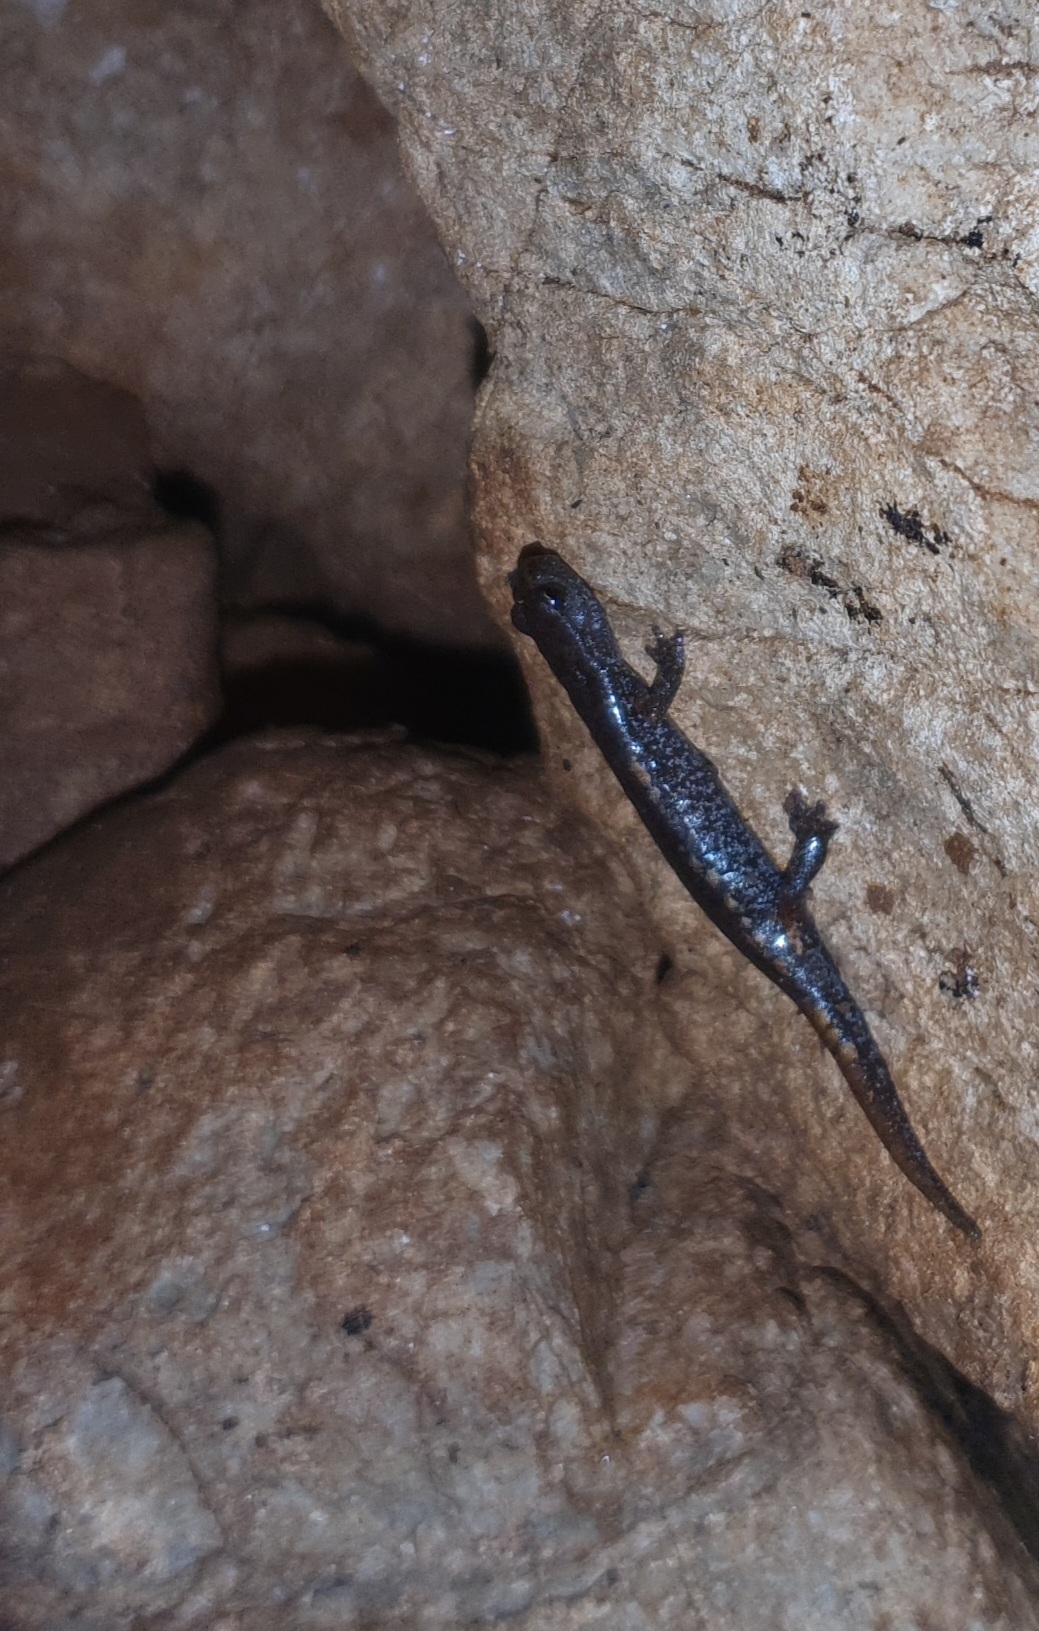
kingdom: Animalia
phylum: Chordata
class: Amphibia
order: Caudata
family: Plethodontidae
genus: Speleomantes
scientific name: Speleomantes ambrosii
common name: Ambrosi's cave salamander
